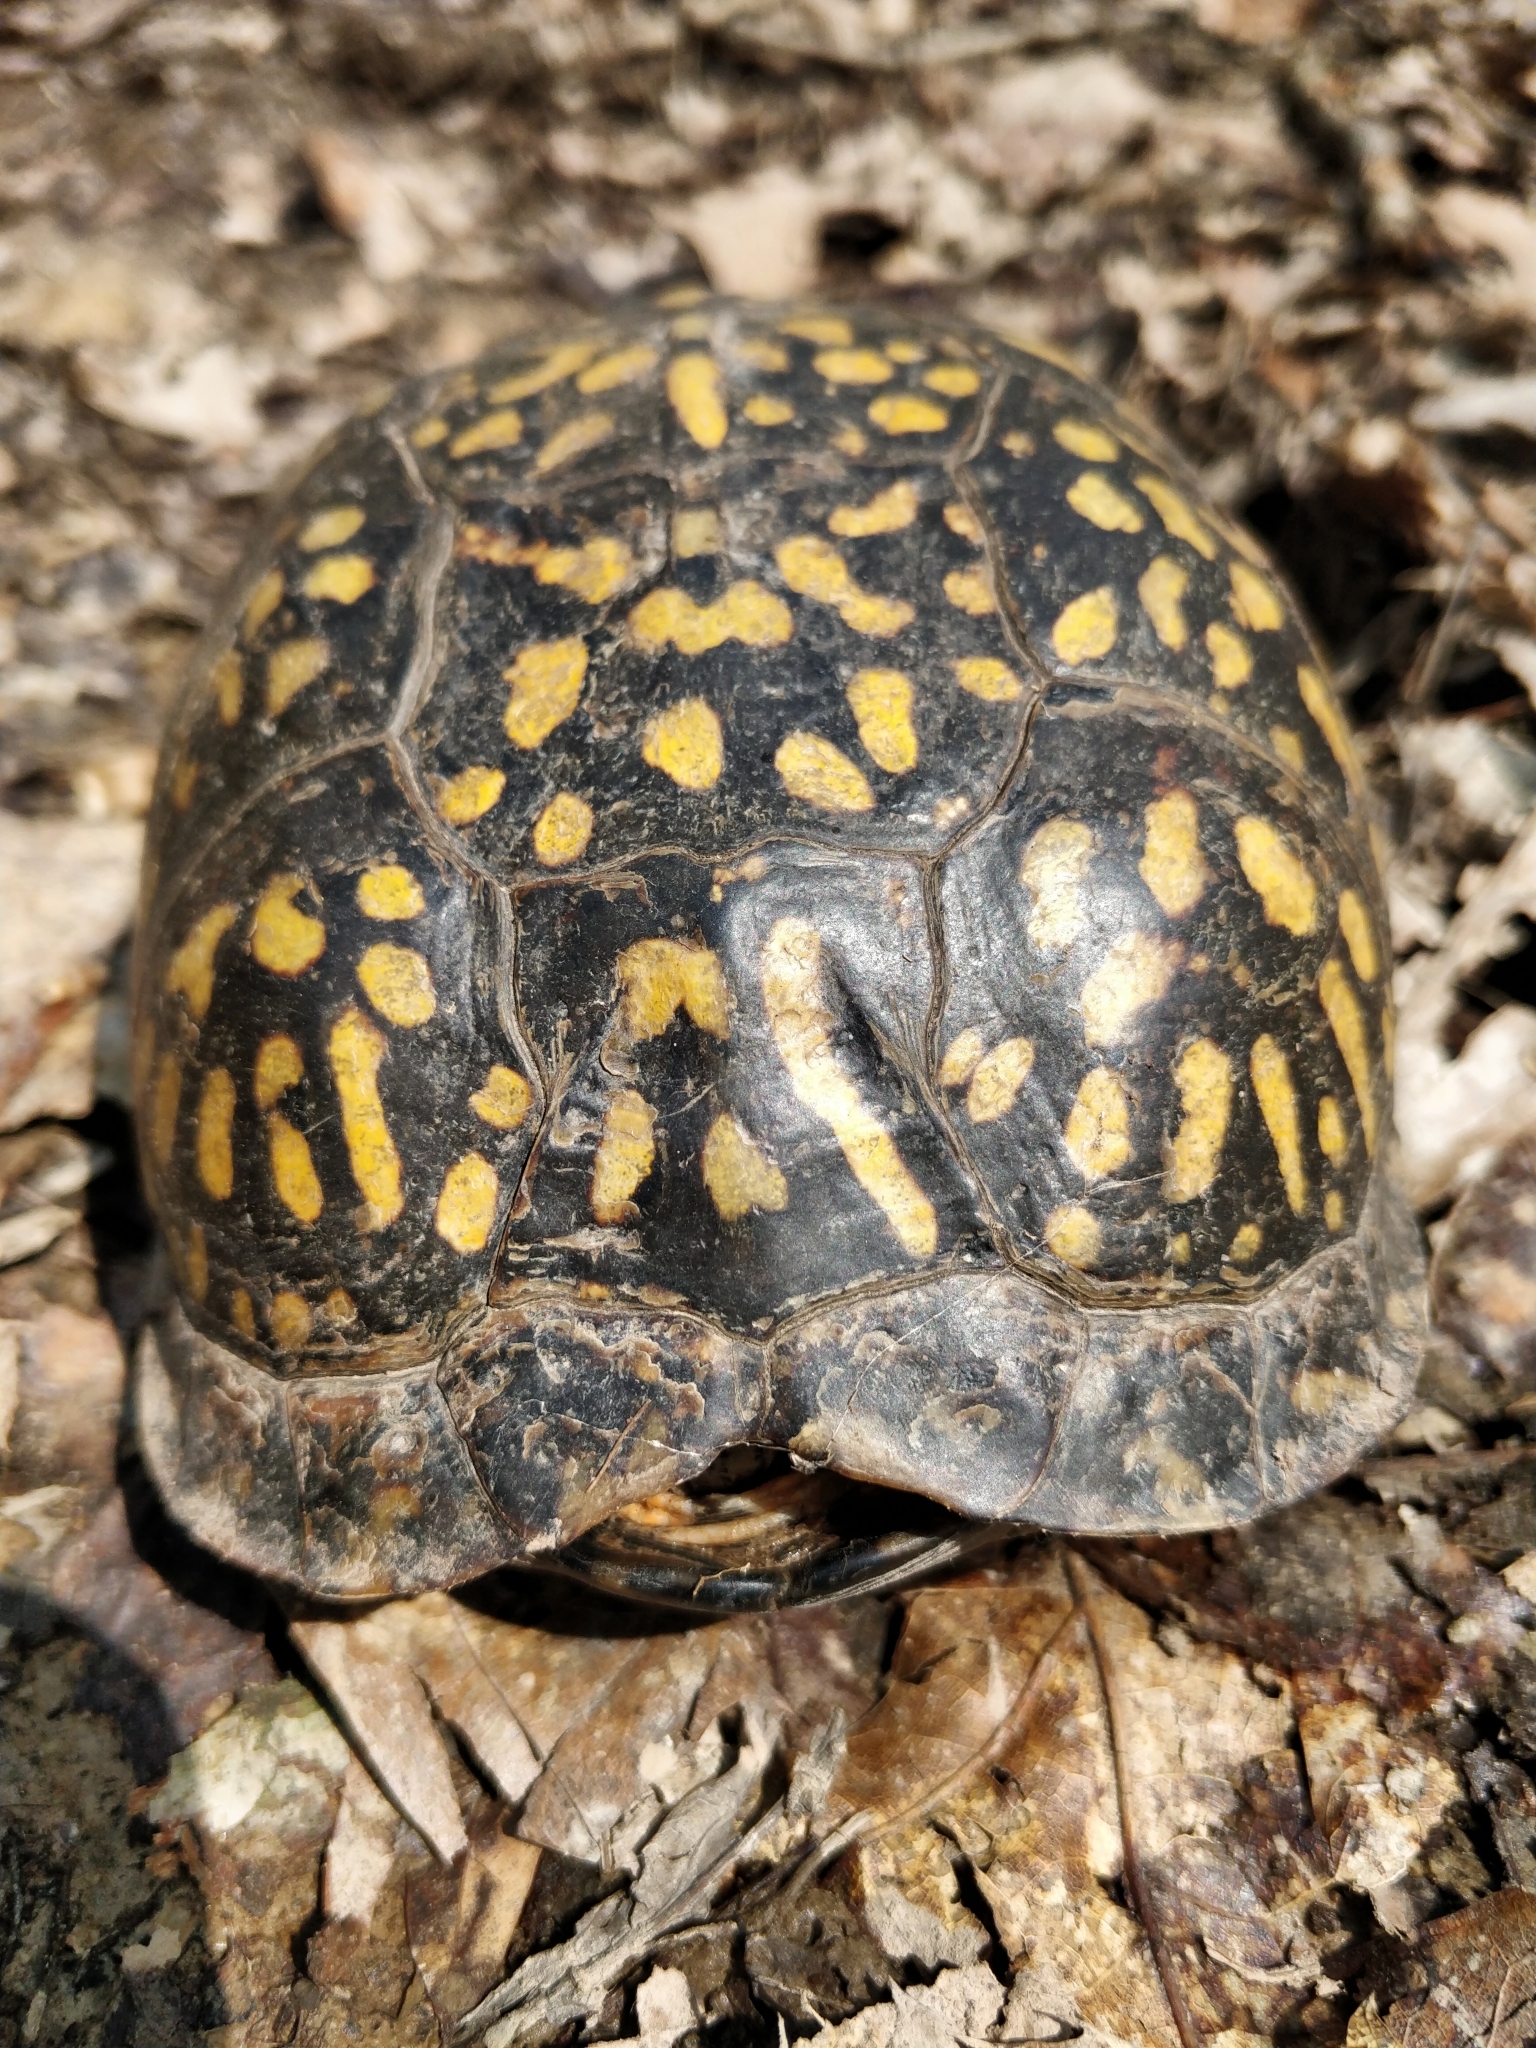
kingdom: Animalia
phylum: Chordata
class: Testudines
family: Emydidae
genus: Terrapene
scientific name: Terrapene carolina
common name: Common box turtle
